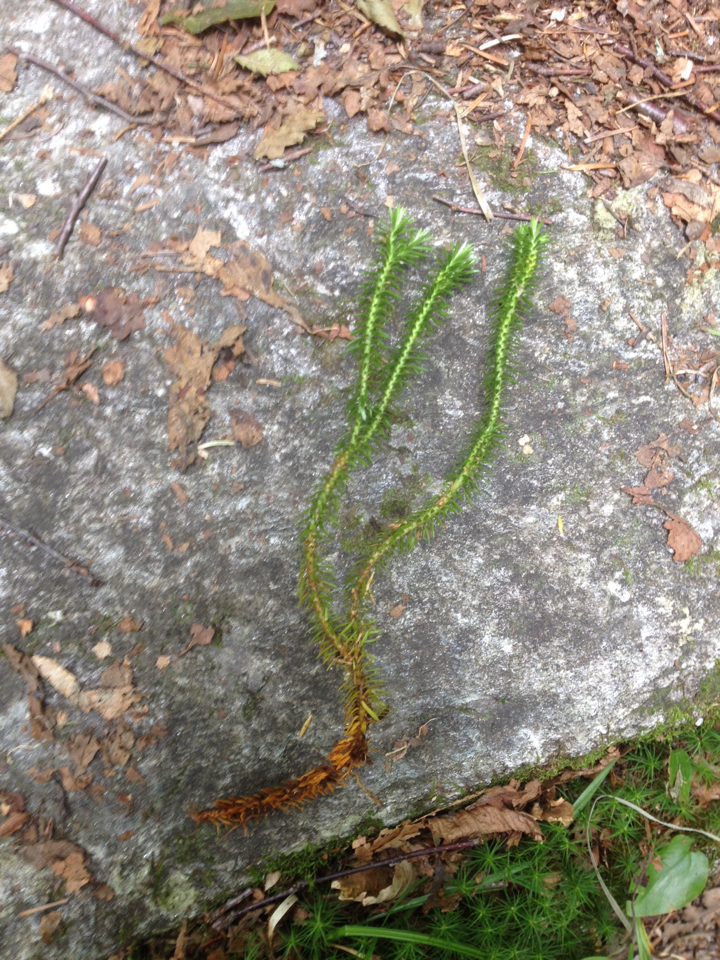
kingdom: Plantae
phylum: Tracheophyta
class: Lycopodiopsida
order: Lycopodiales
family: Lycopodiaceae
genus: Huperzia
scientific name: Huperzia lucidula
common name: Shining clubmoss
